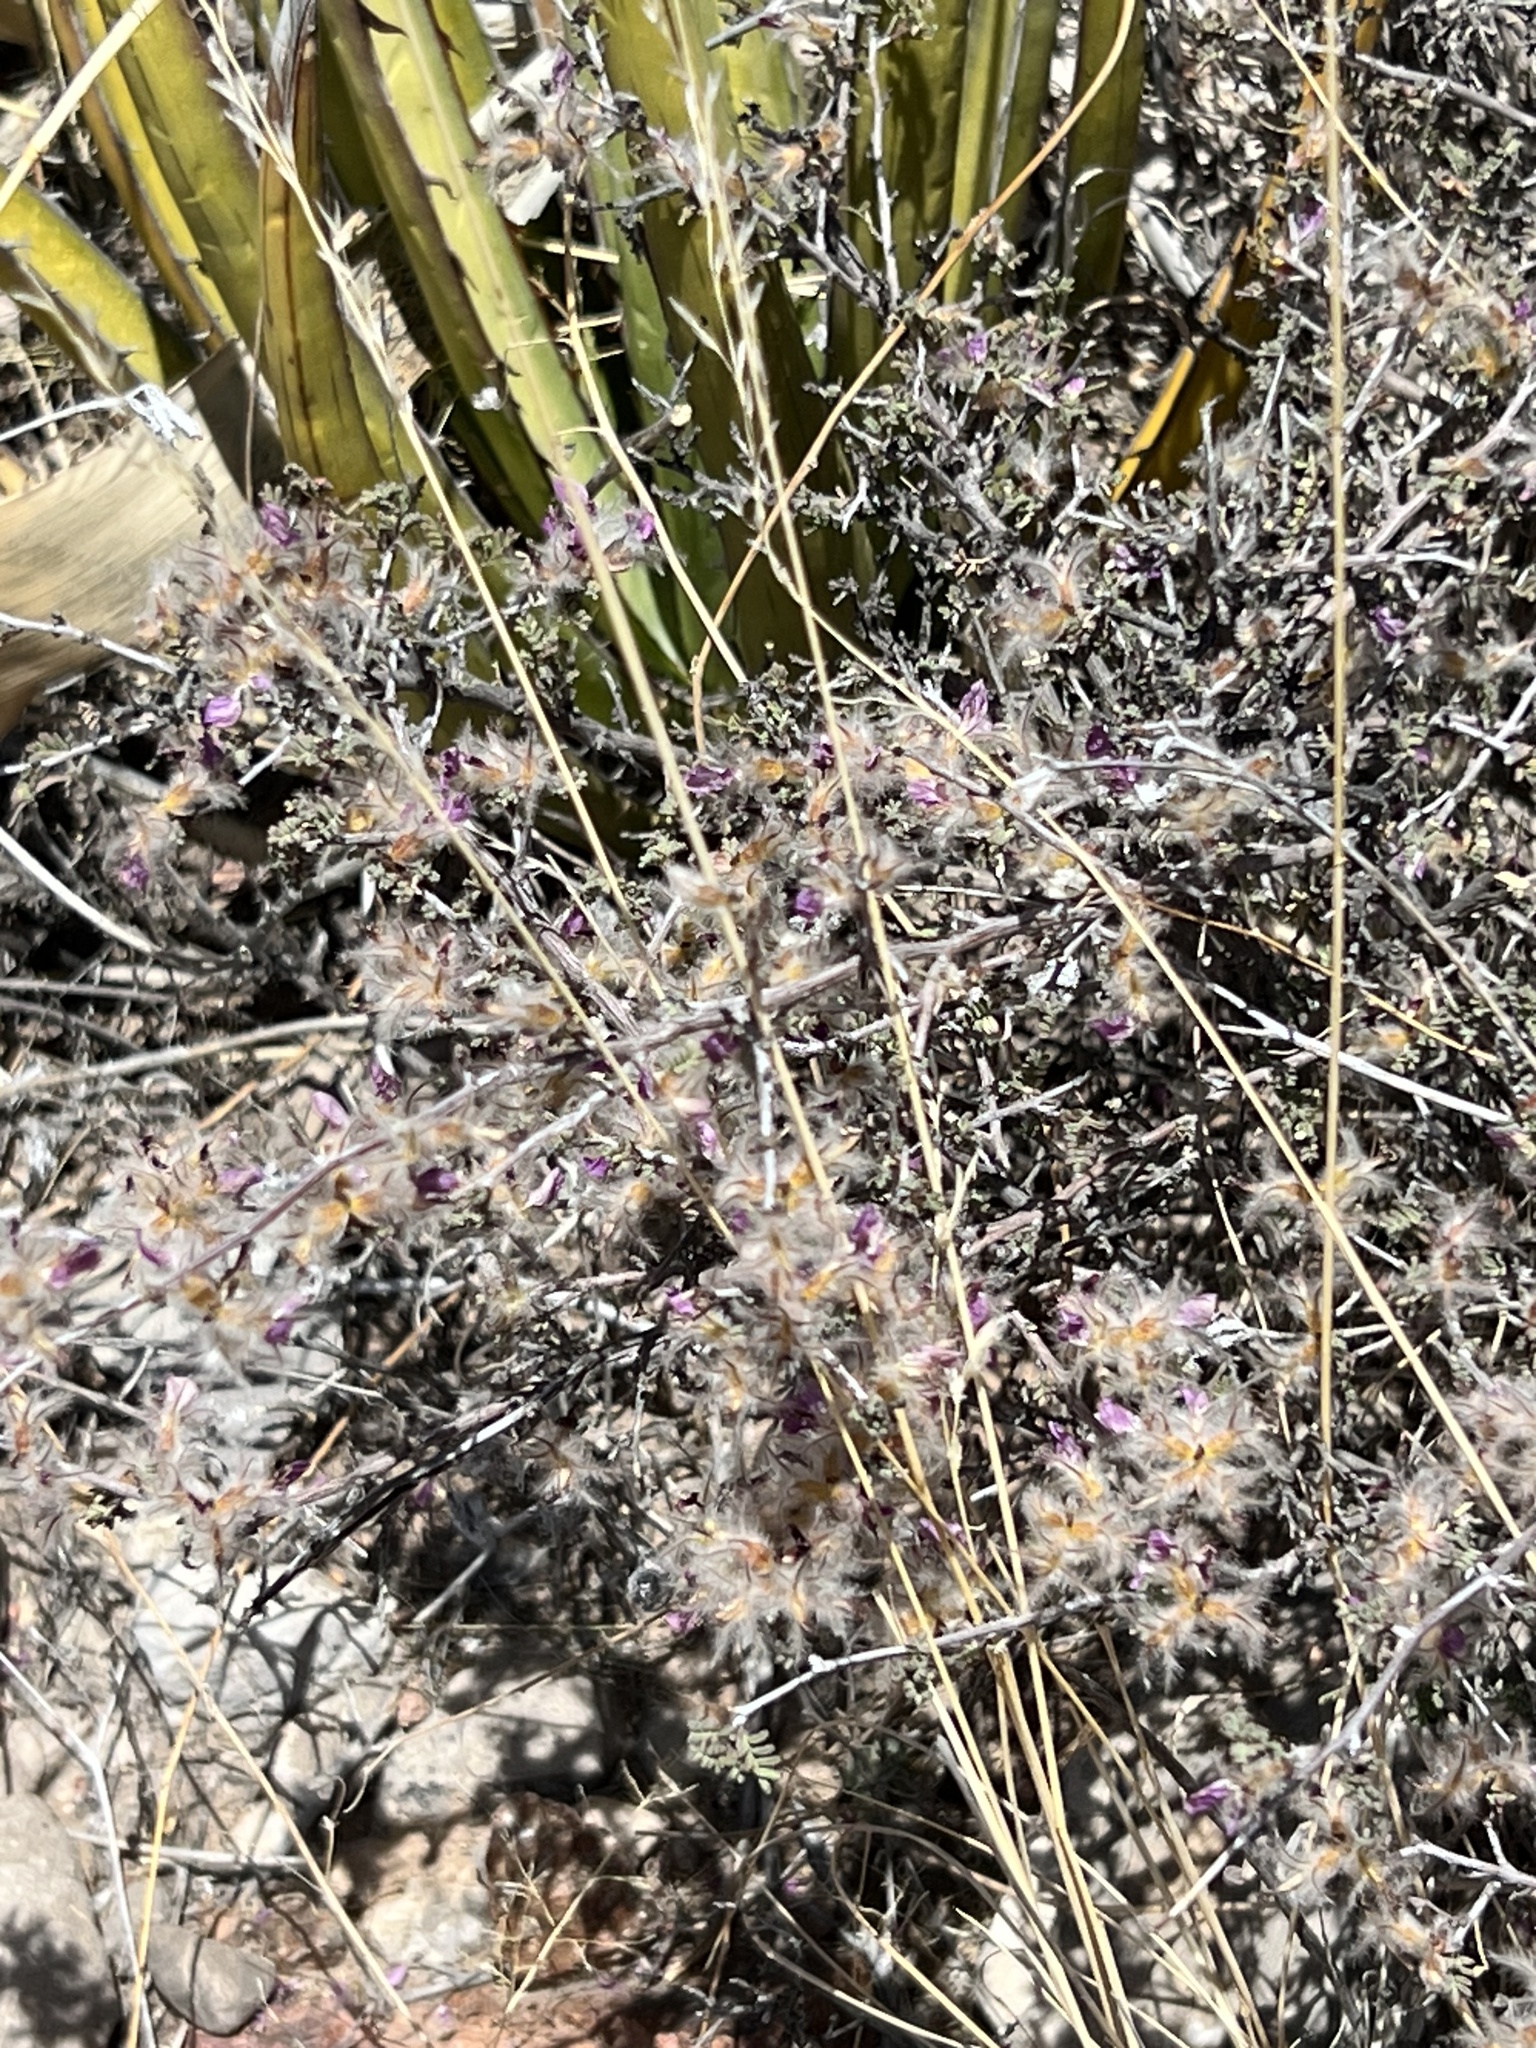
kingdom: Plantae
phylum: Tracheophyta
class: Magnoliopsida
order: Fabales
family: Fabaceae
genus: Dalea
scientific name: Dalea formosa
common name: Feather-plume dalea
